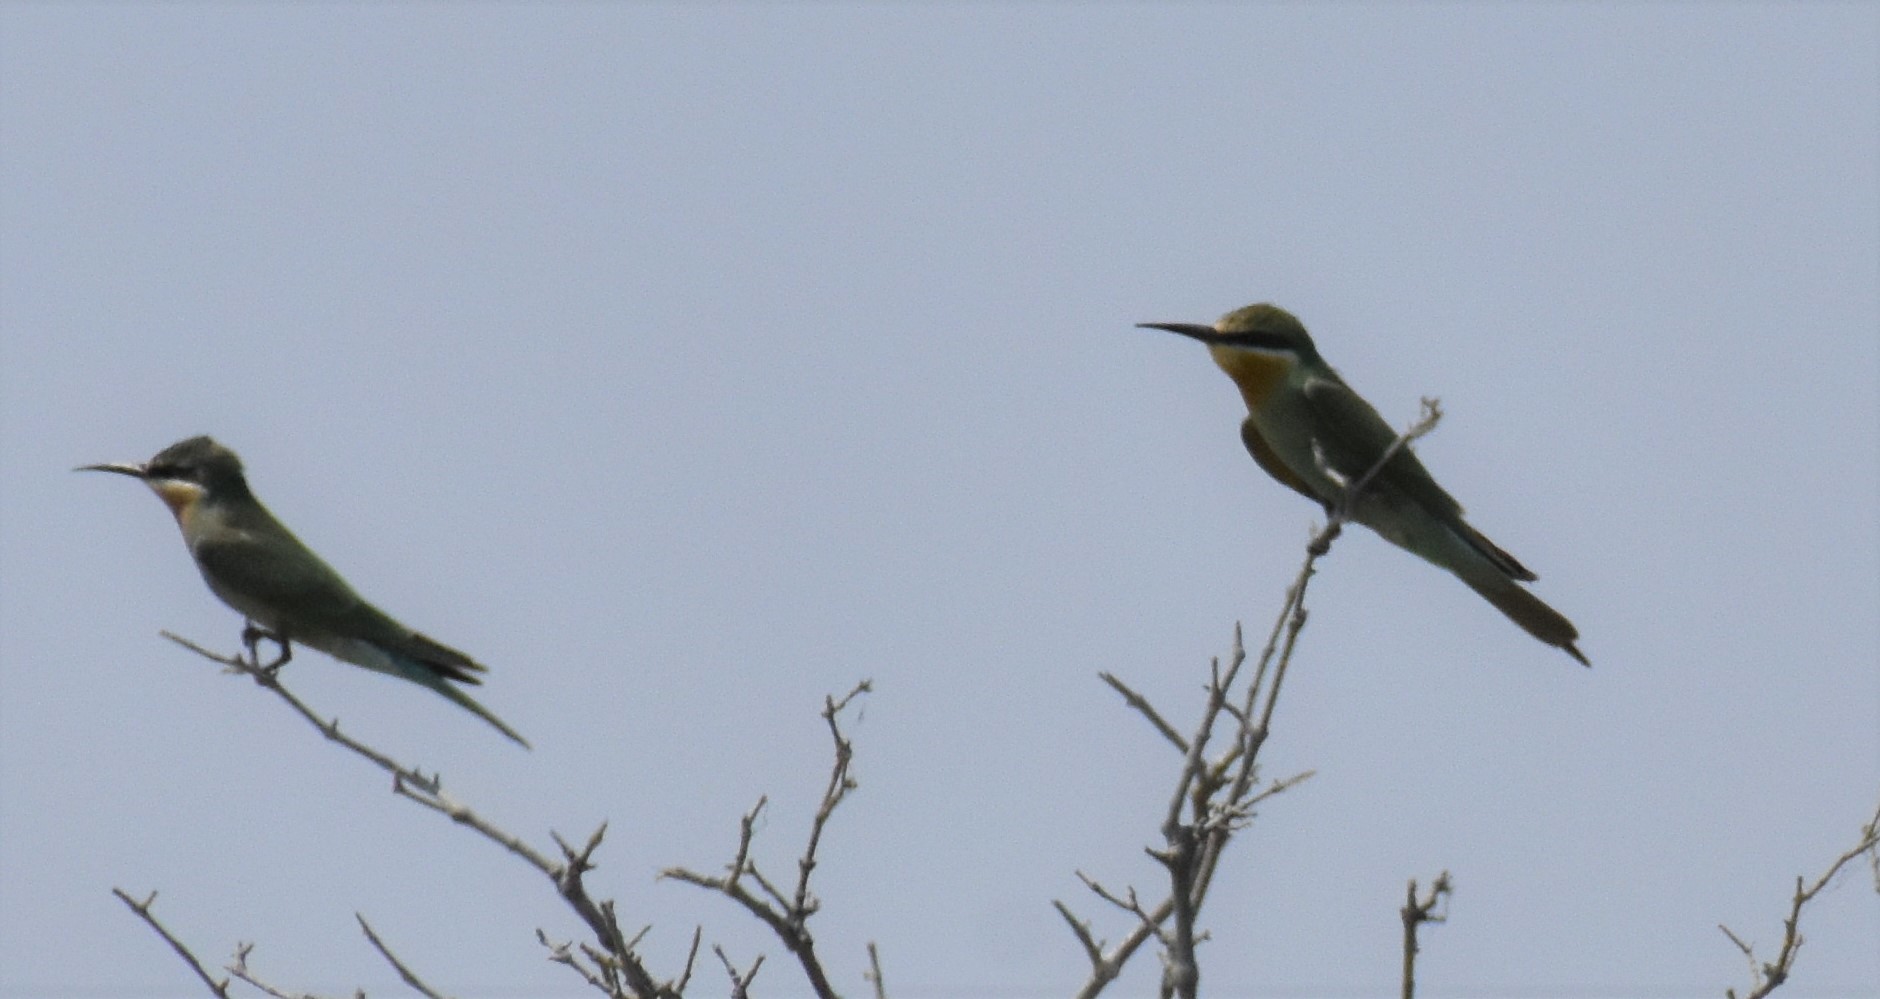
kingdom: Animalia
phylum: Chordata
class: Aves
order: Coraciiformes
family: Meropidae
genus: Merops
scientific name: Merops persicus
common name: Blue-cheeked bee-eater
